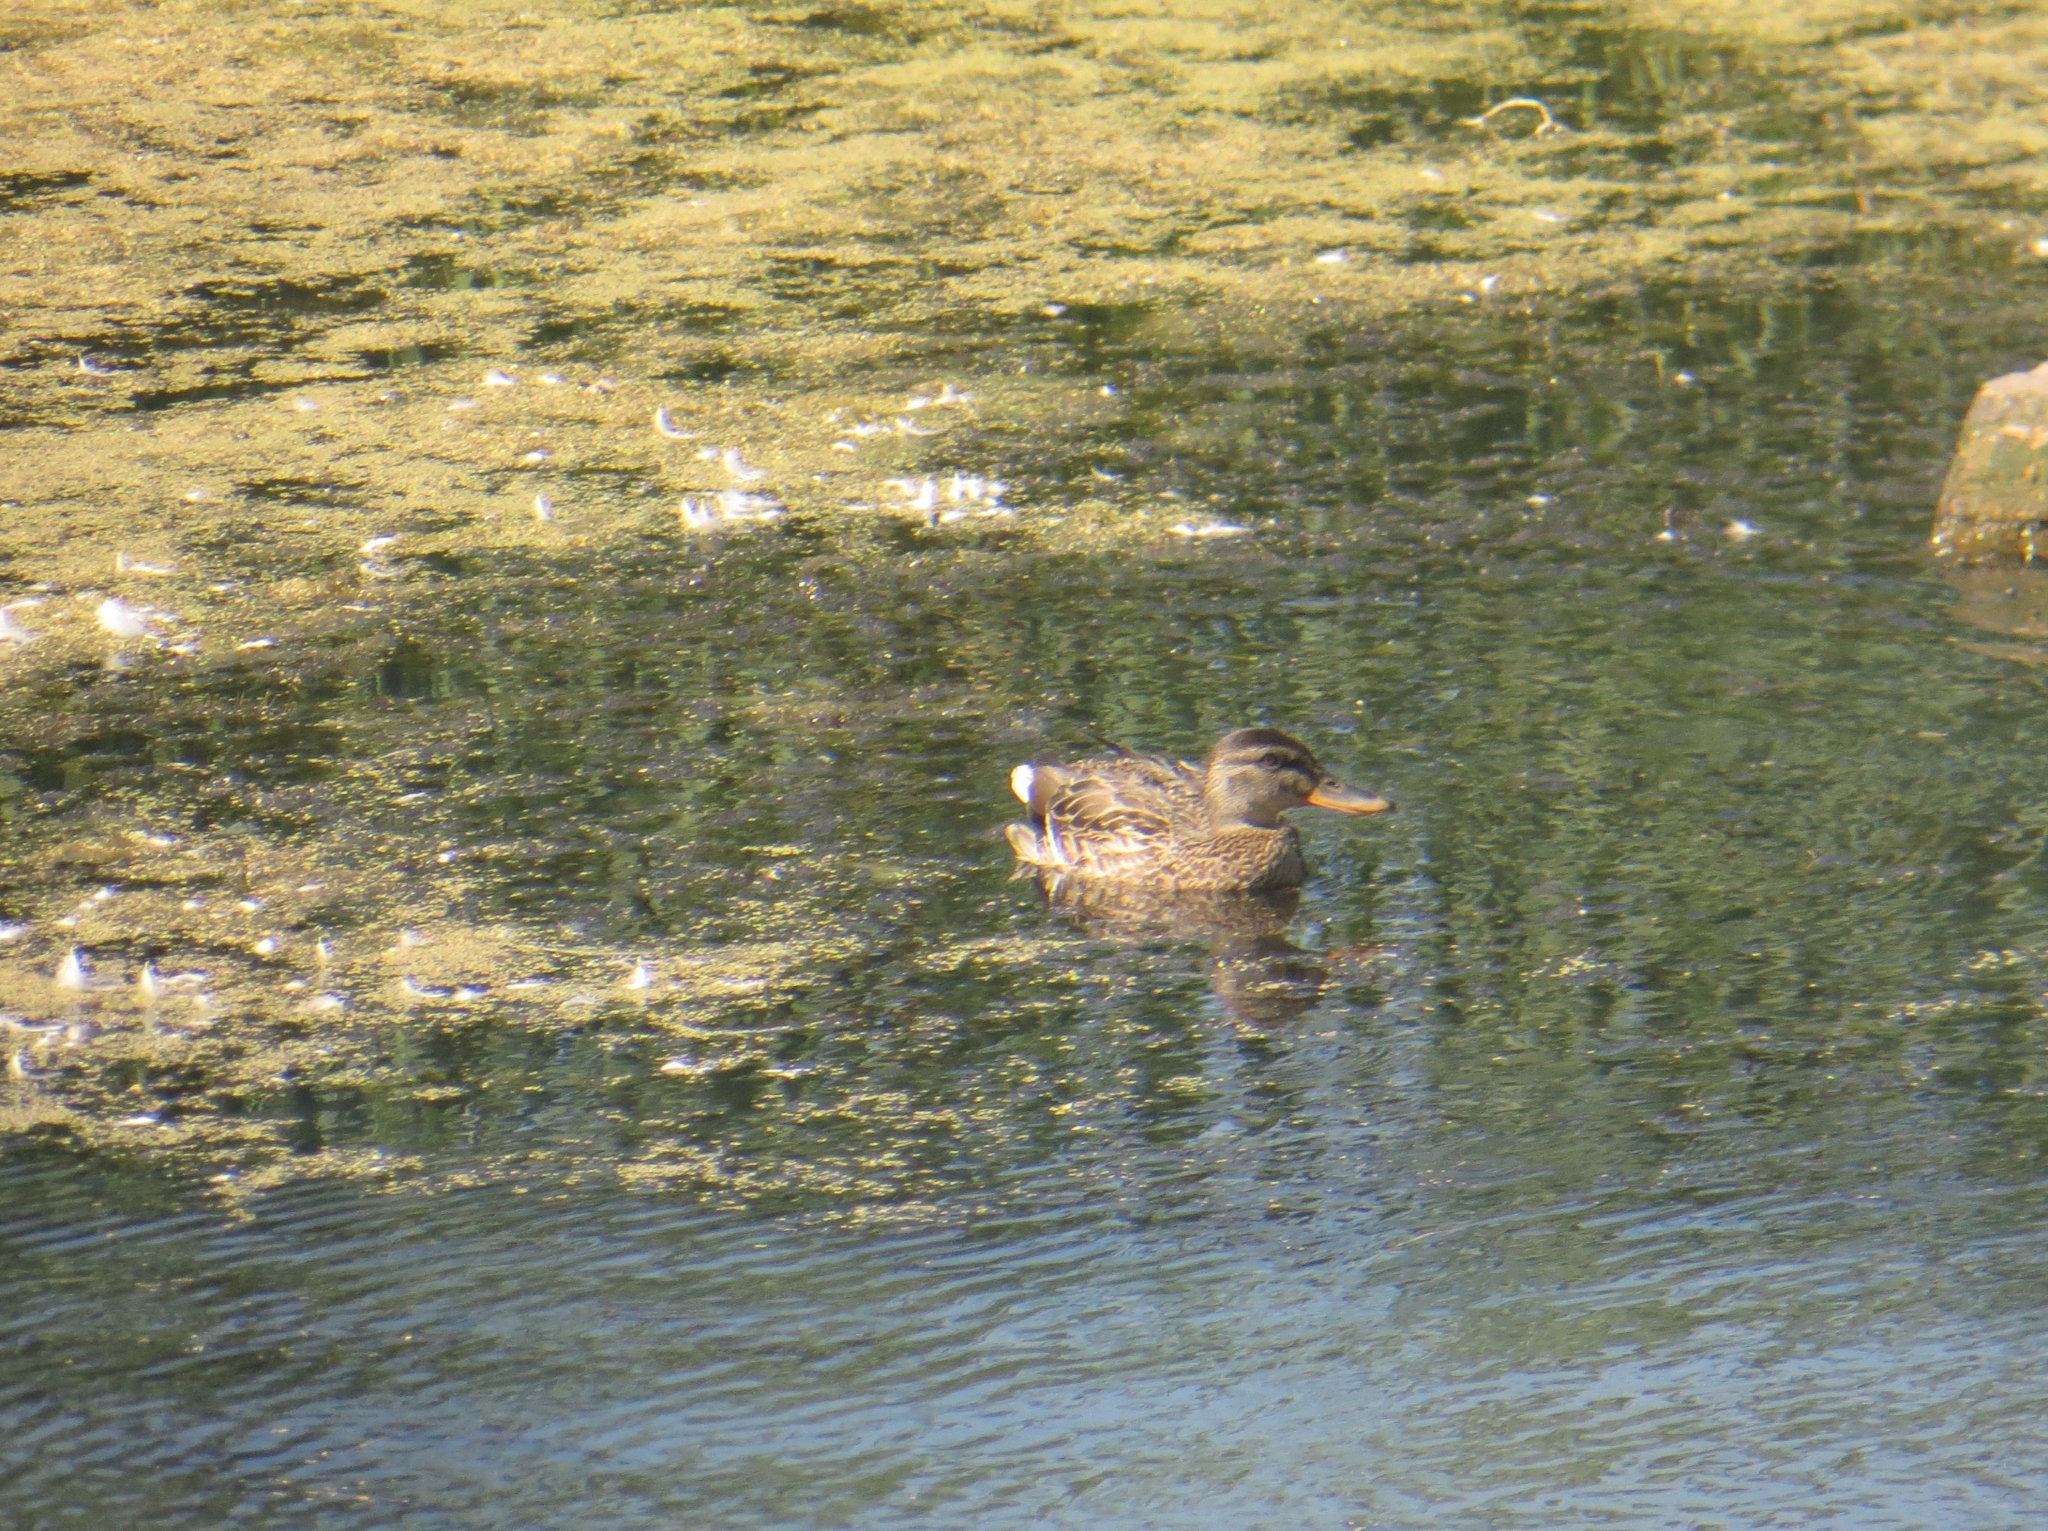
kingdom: Animalia
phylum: Chordata
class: Aves
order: Anseriformes
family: Anatidae
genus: Anas
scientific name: Anas platyrhynchos
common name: Mallard
